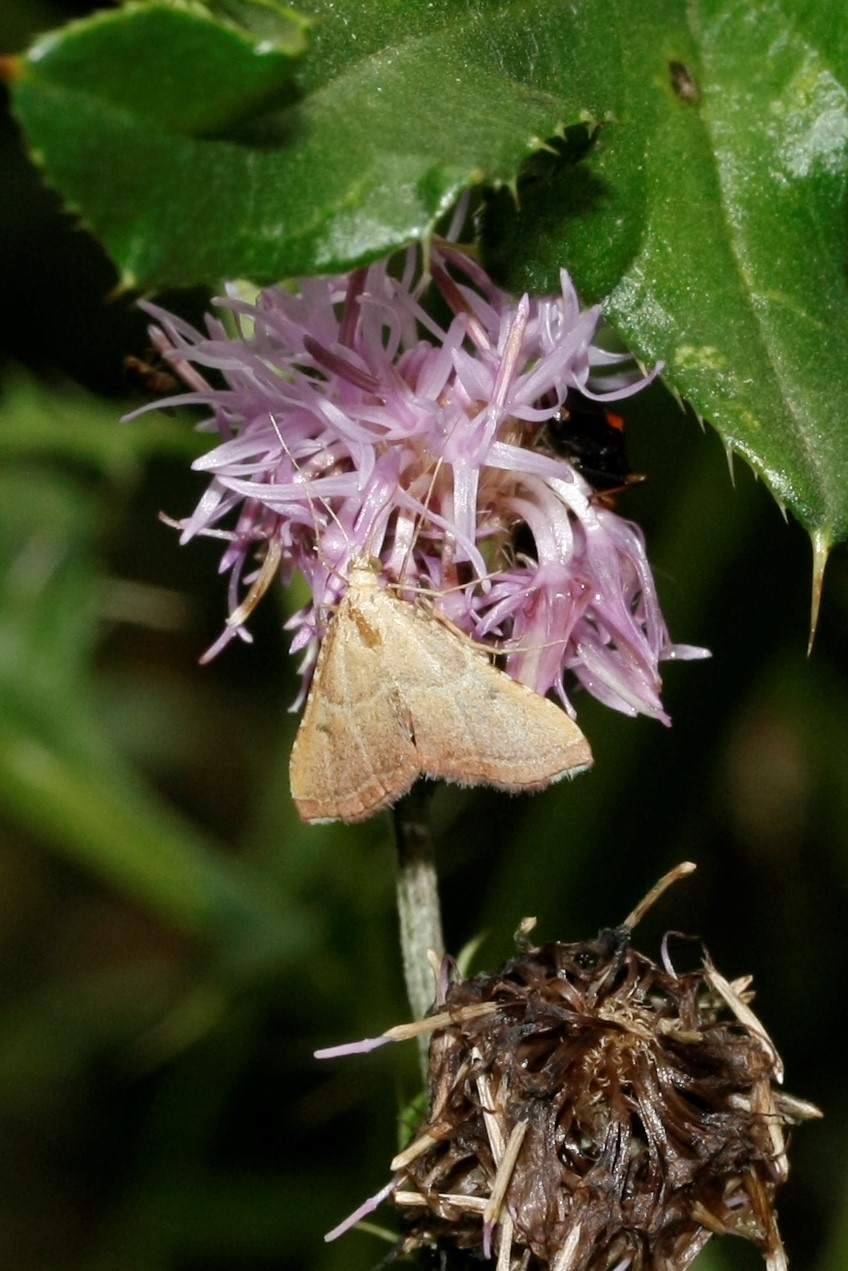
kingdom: Animalia
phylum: Arthropoda
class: Insecta
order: Lepidoptera
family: Pyralidae
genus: Endotricha
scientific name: Endotricha flammealis
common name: Rosy tabby
